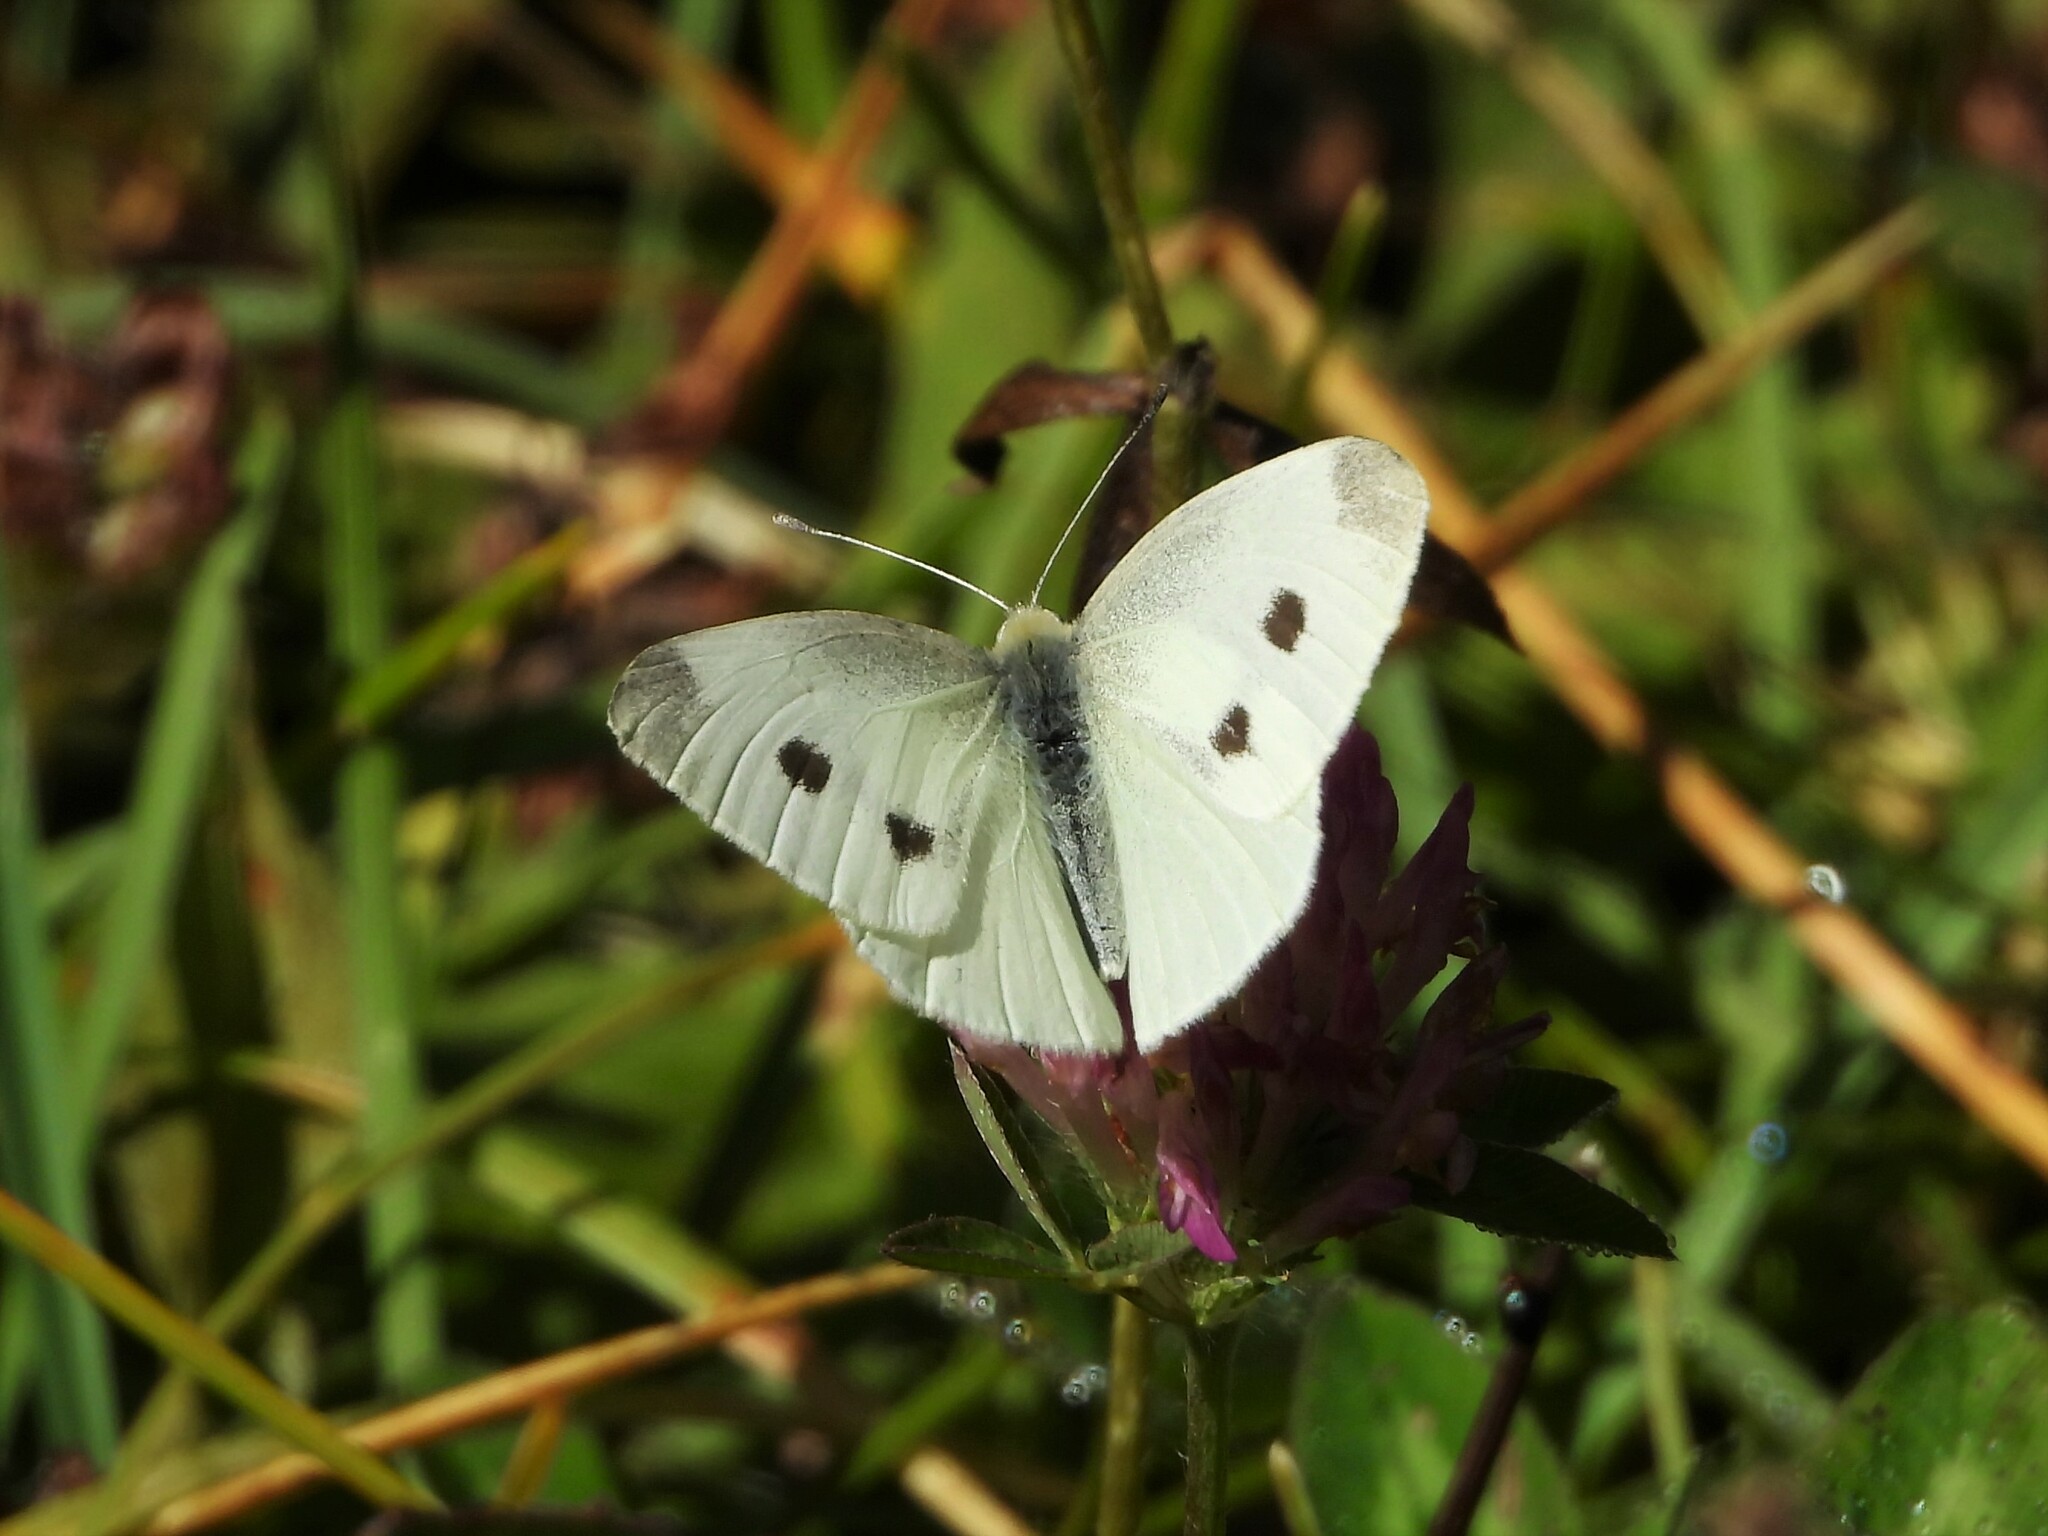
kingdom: Animalia
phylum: Arthropoda
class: Insecta
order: Lepidoptera
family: Pieridae
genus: Pieris
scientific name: Pieris rapae
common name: Small white
